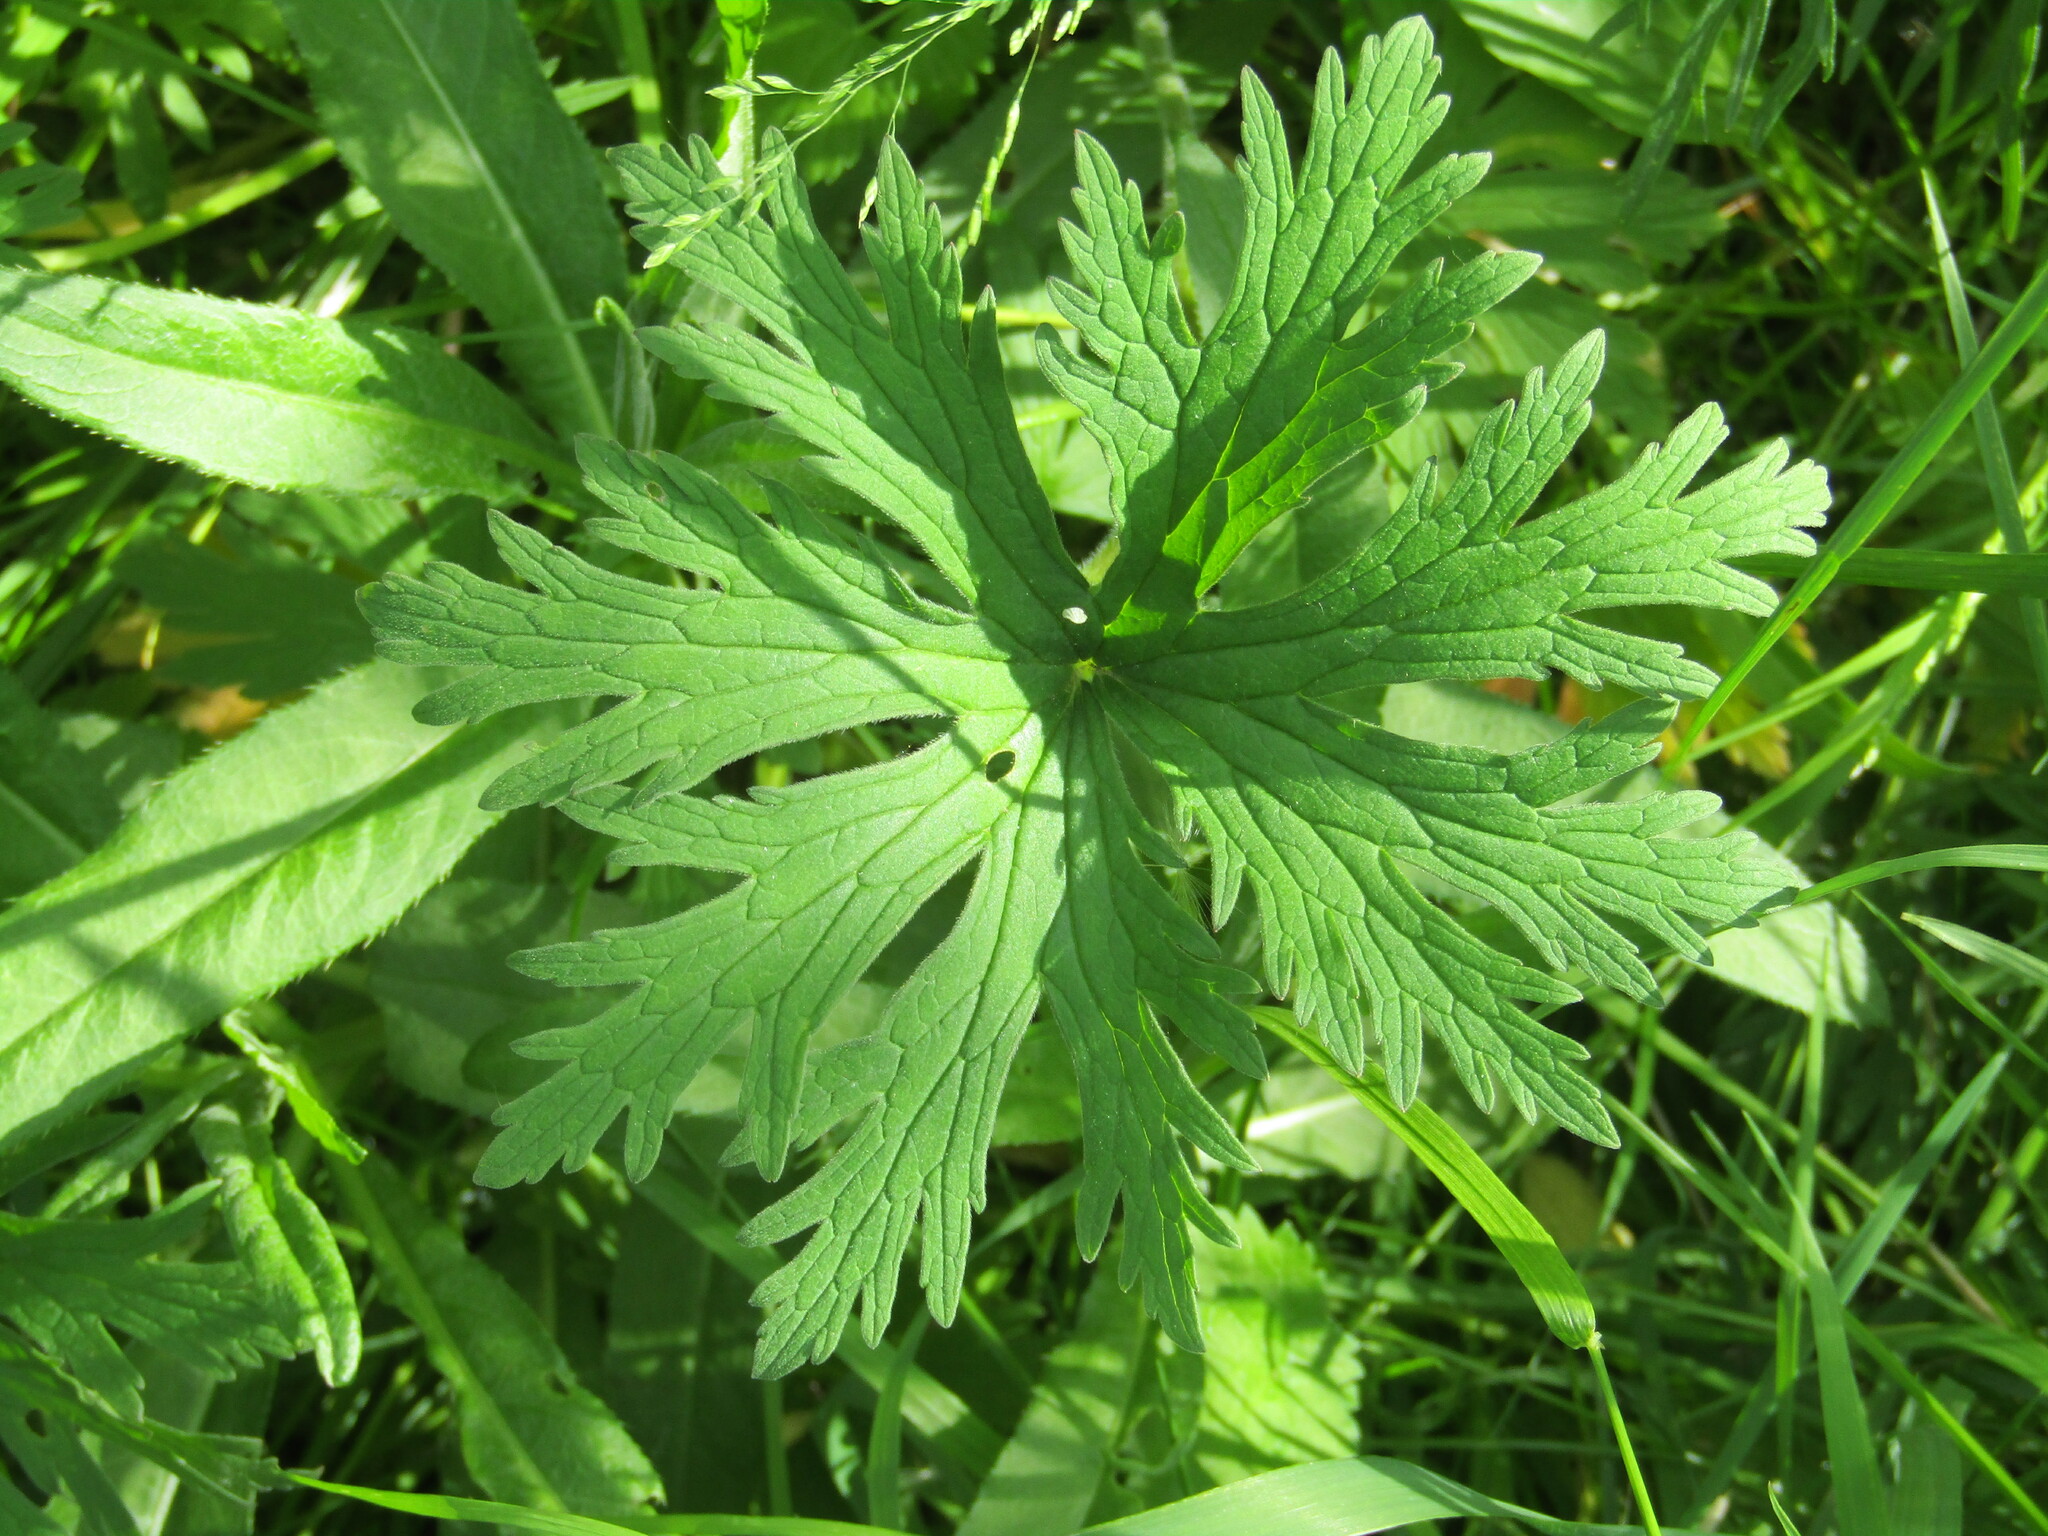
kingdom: Plantae
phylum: Tracheophyta
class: Magnoliopsida
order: Geraniales
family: Geraniaceae
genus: Geranium
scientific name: Geranium pratense
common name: Meadow crane's-bill
